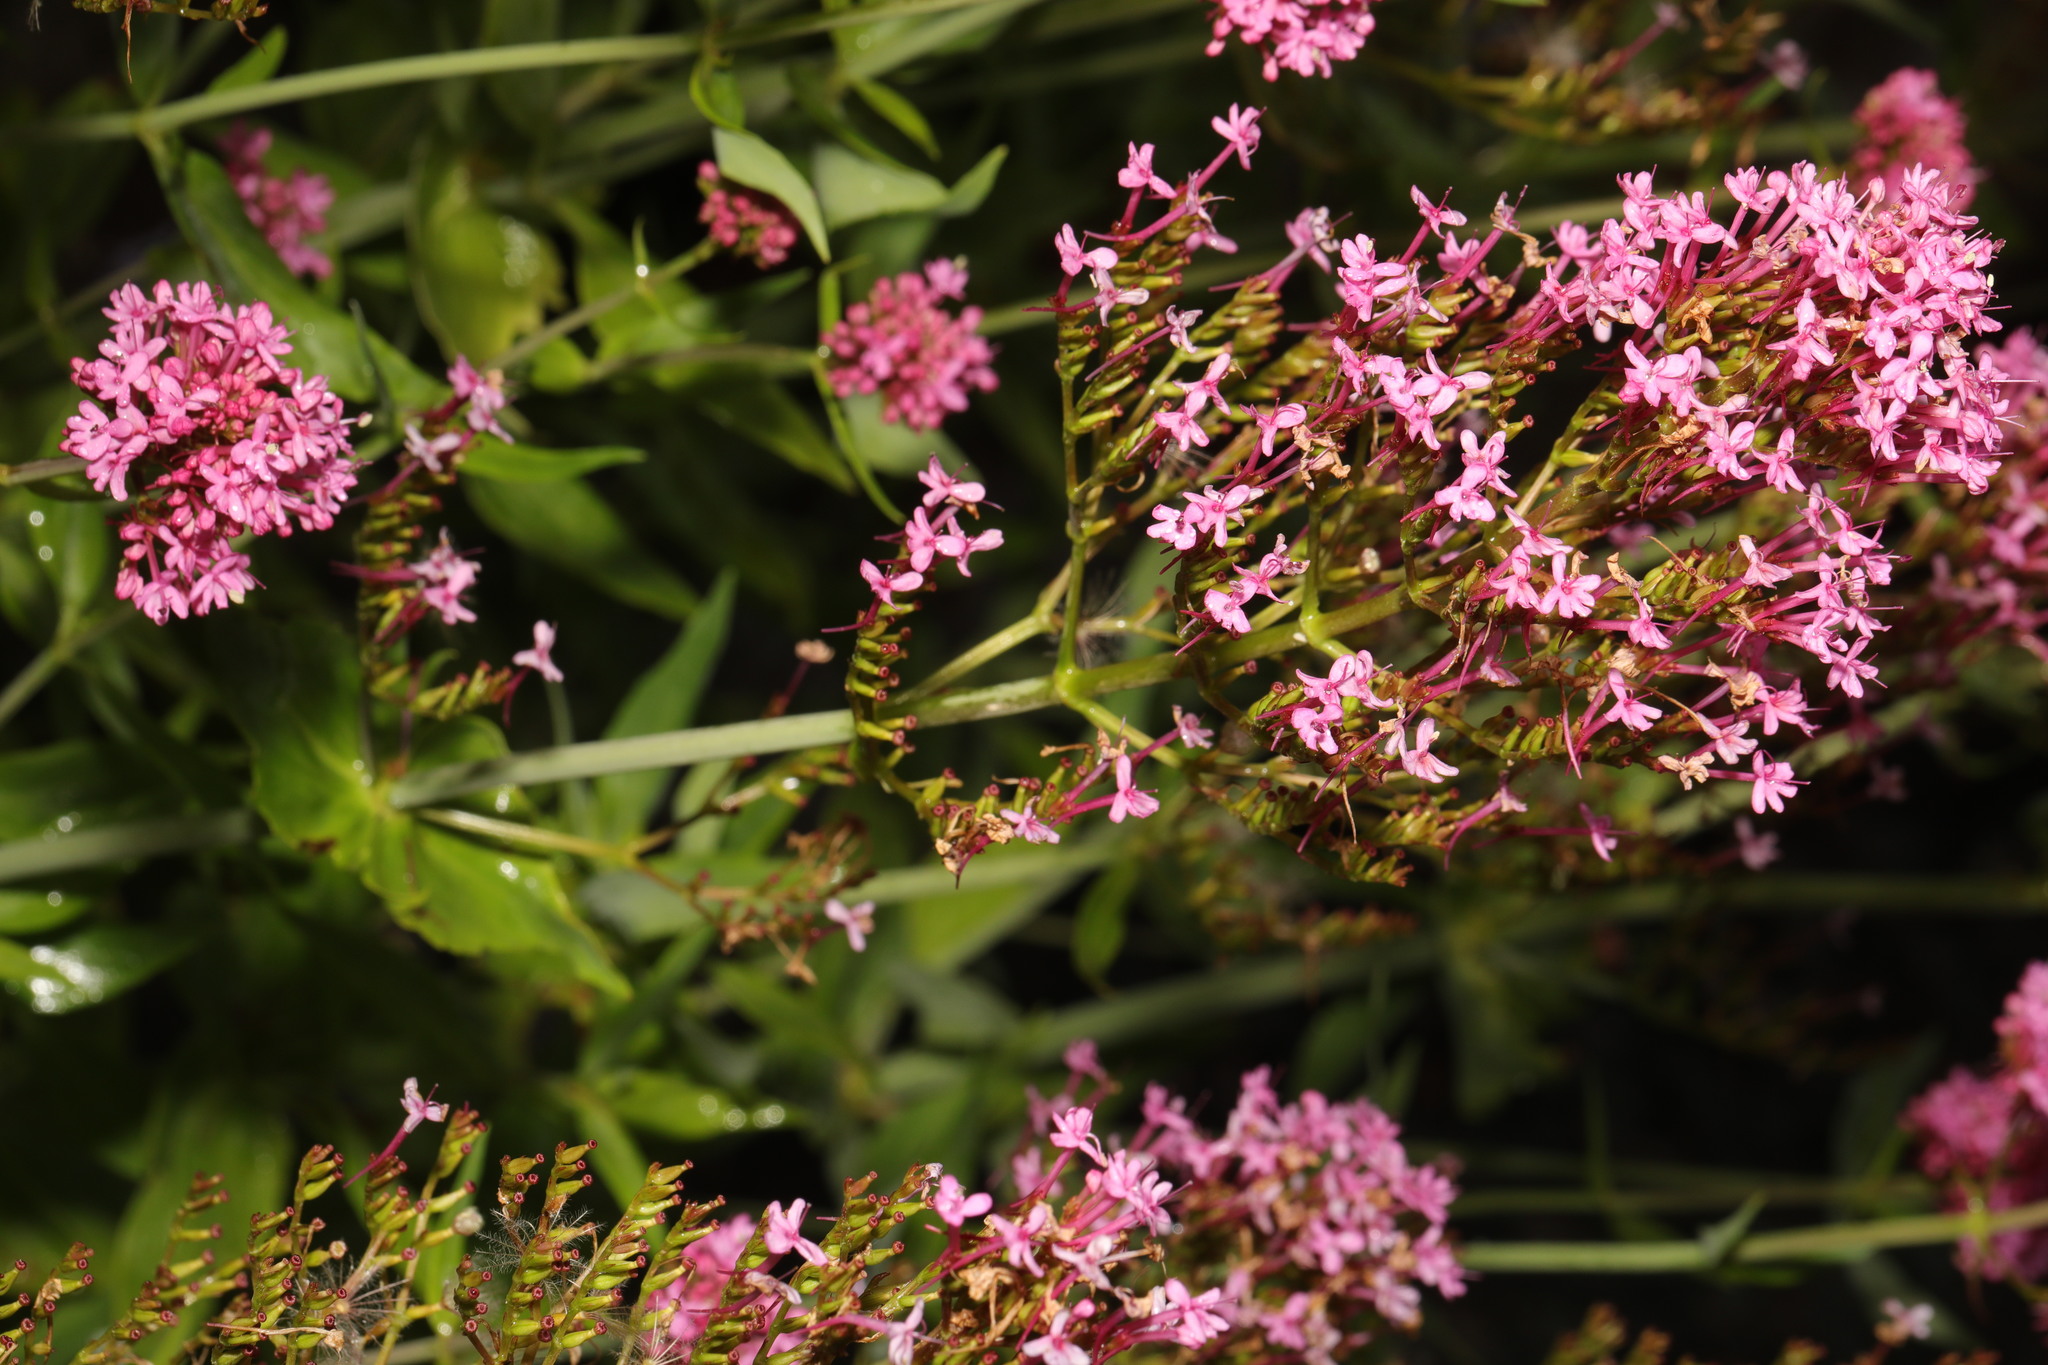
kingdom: Plantae
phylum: Tracheophyta
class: Magnoliopsida
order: Dipsacales
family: Caprifoliaceae
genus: Centranthus
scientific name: Centranthus ruber
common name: Red valerian
